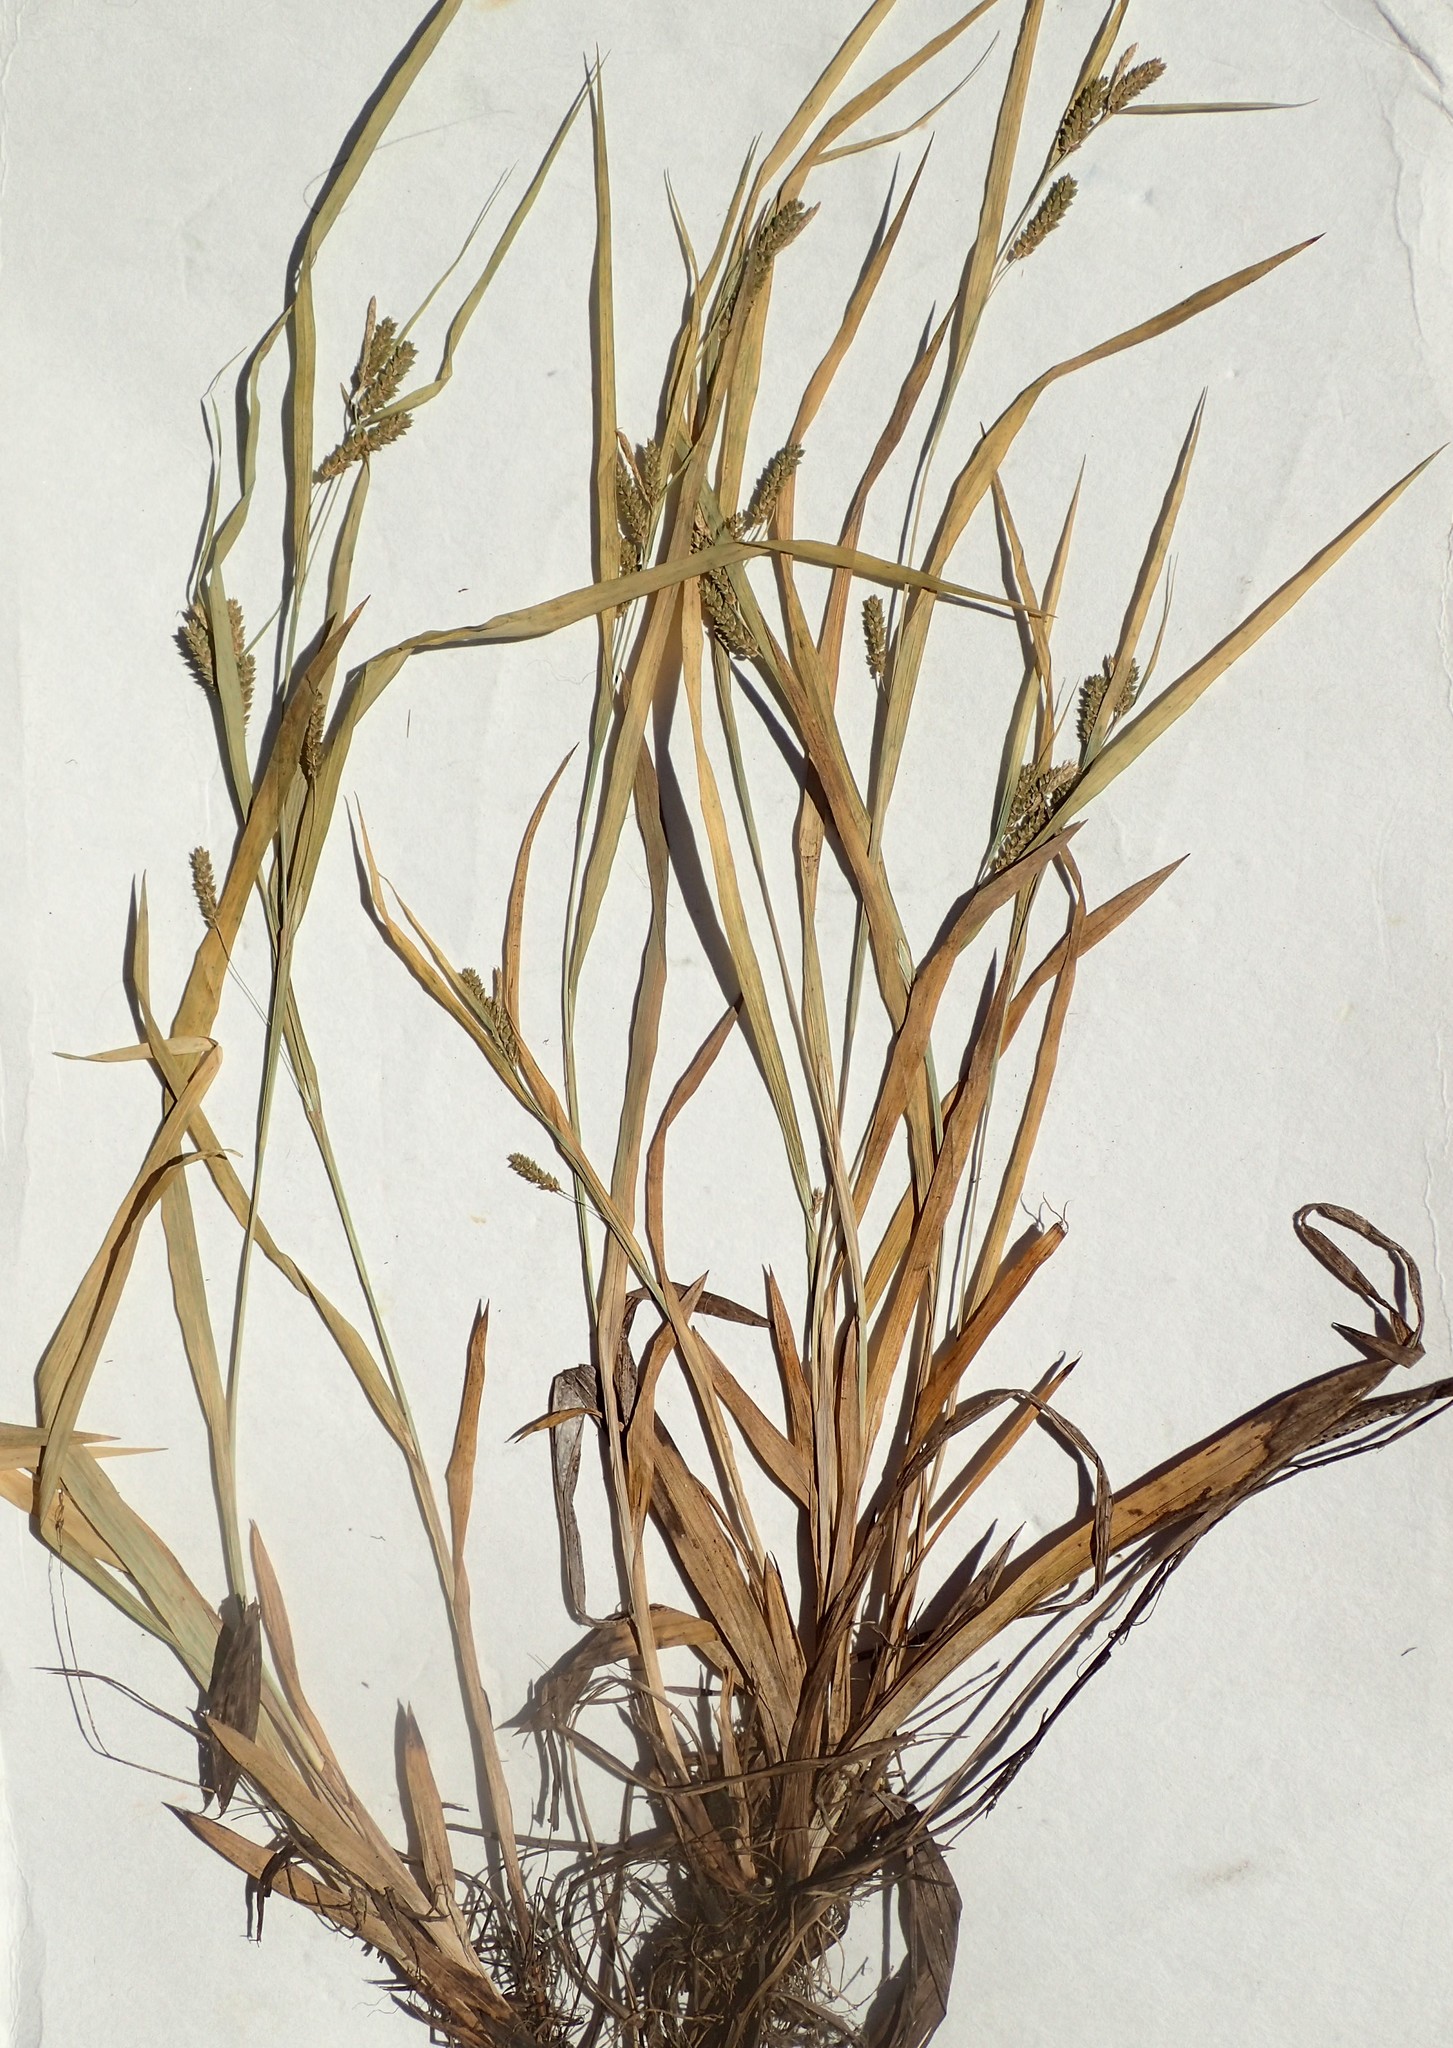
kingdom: Plantae
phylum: Tracheophyta
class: Liliopsida
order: Poales
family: Cyperaceae
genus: Carex
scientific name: Carex granularis
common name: Granular sedge
